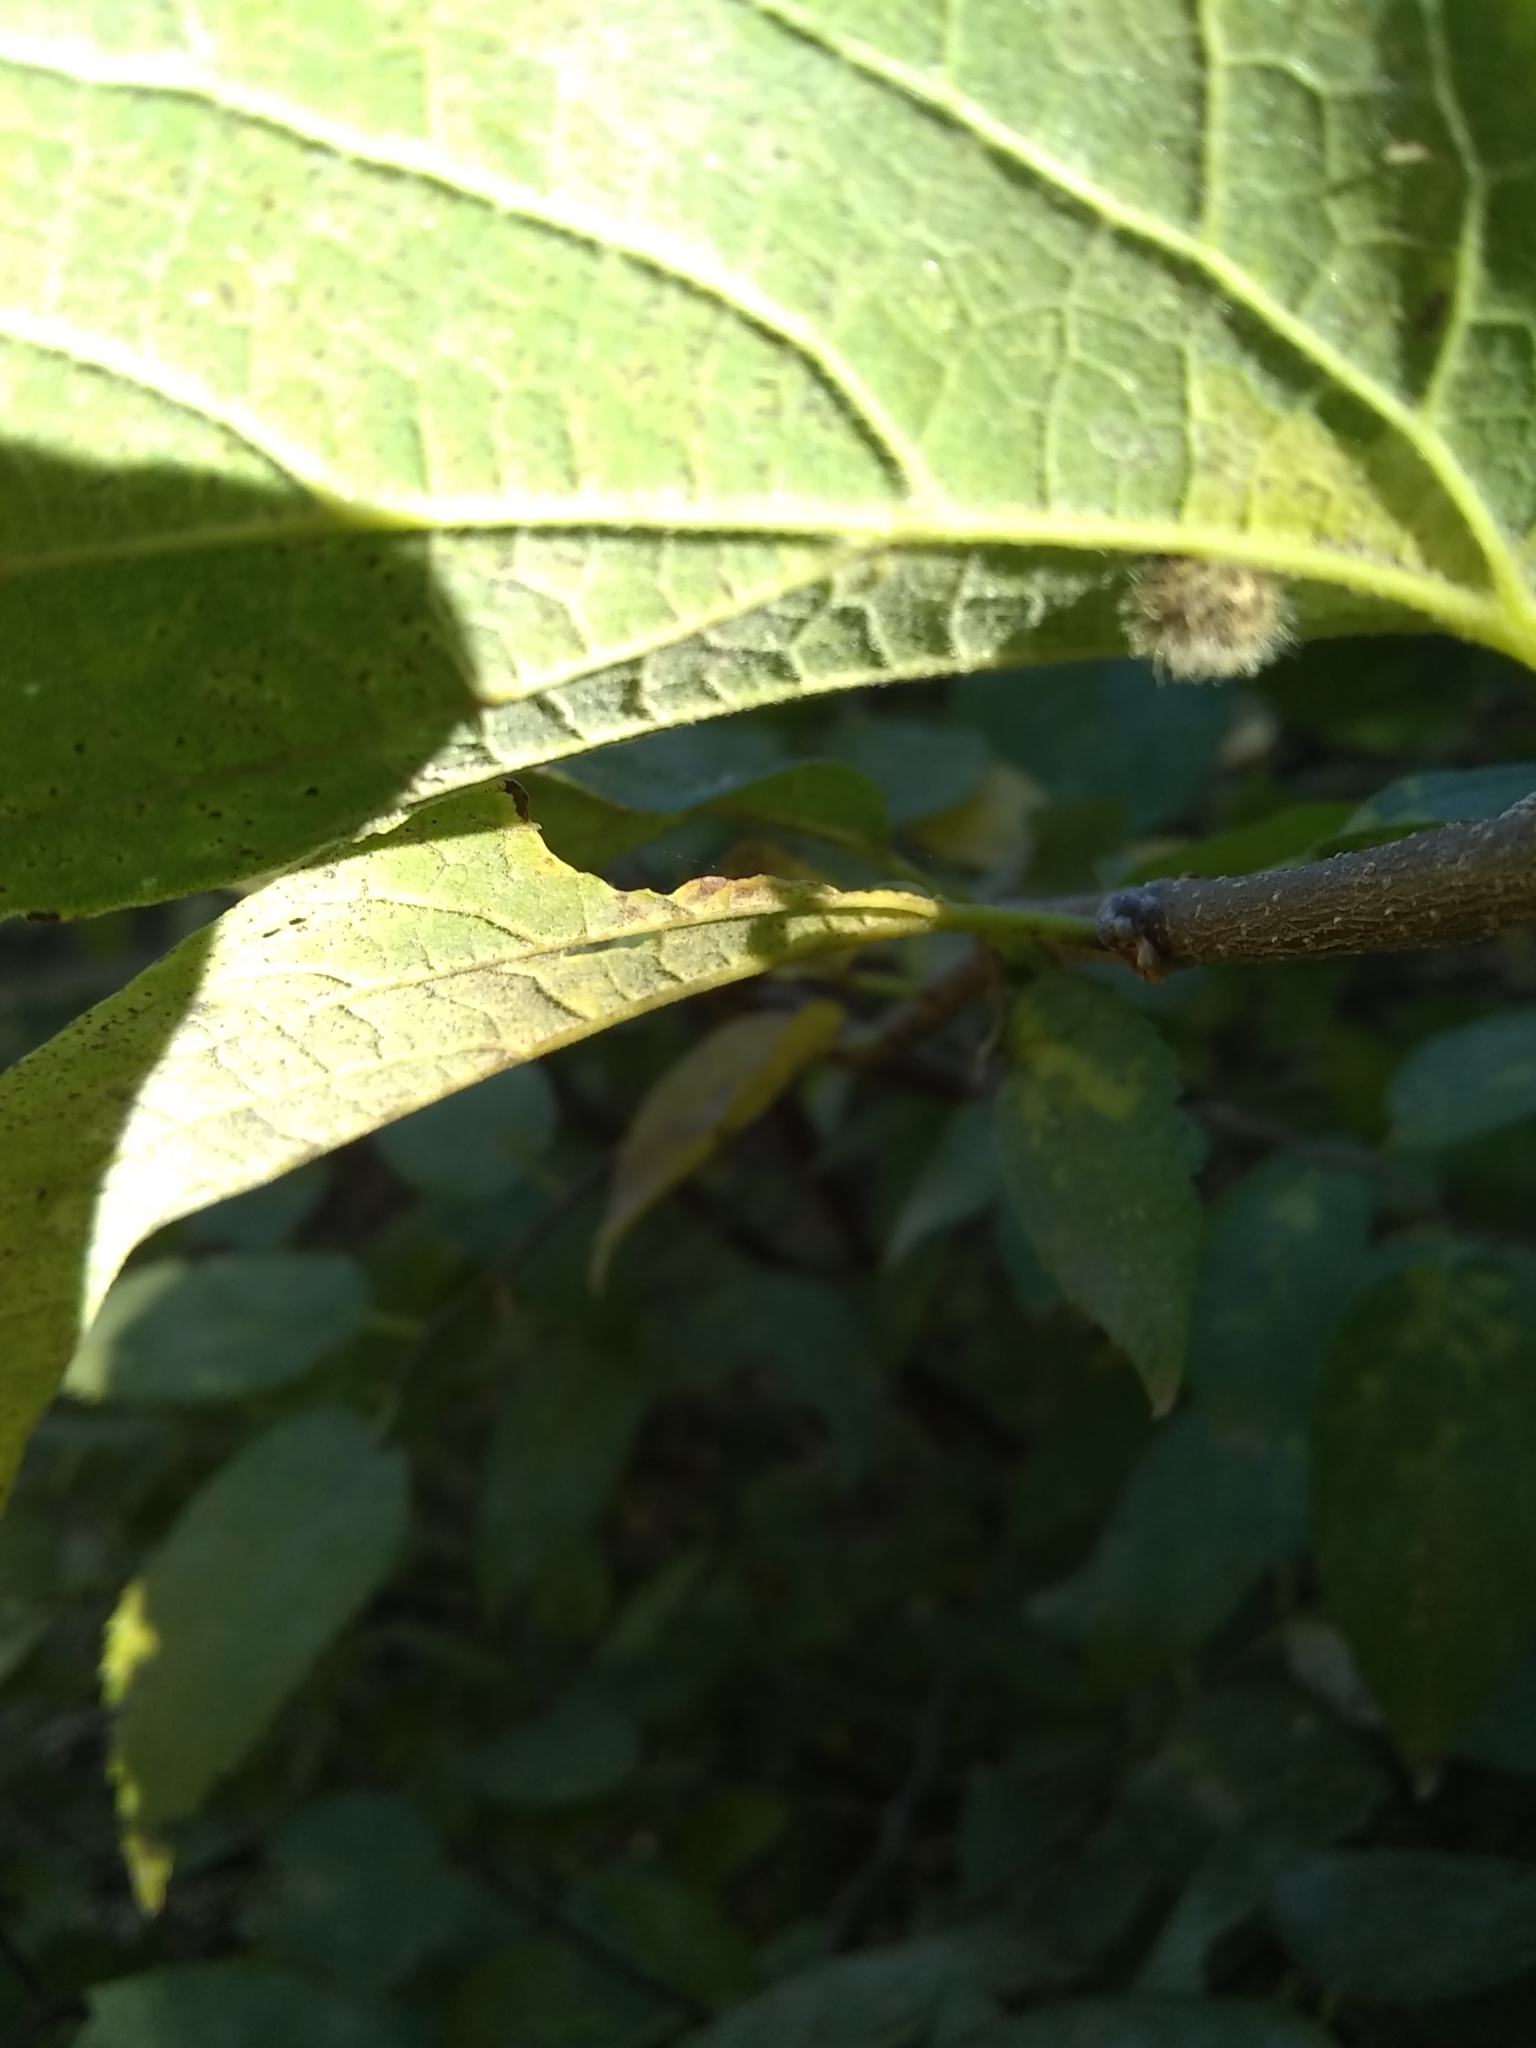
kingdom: Animalia
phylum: Arthropoda
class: Insecta
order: Diptera
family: Cecidomyiidae
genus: Celticecis
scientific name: Celticecis pubescens
